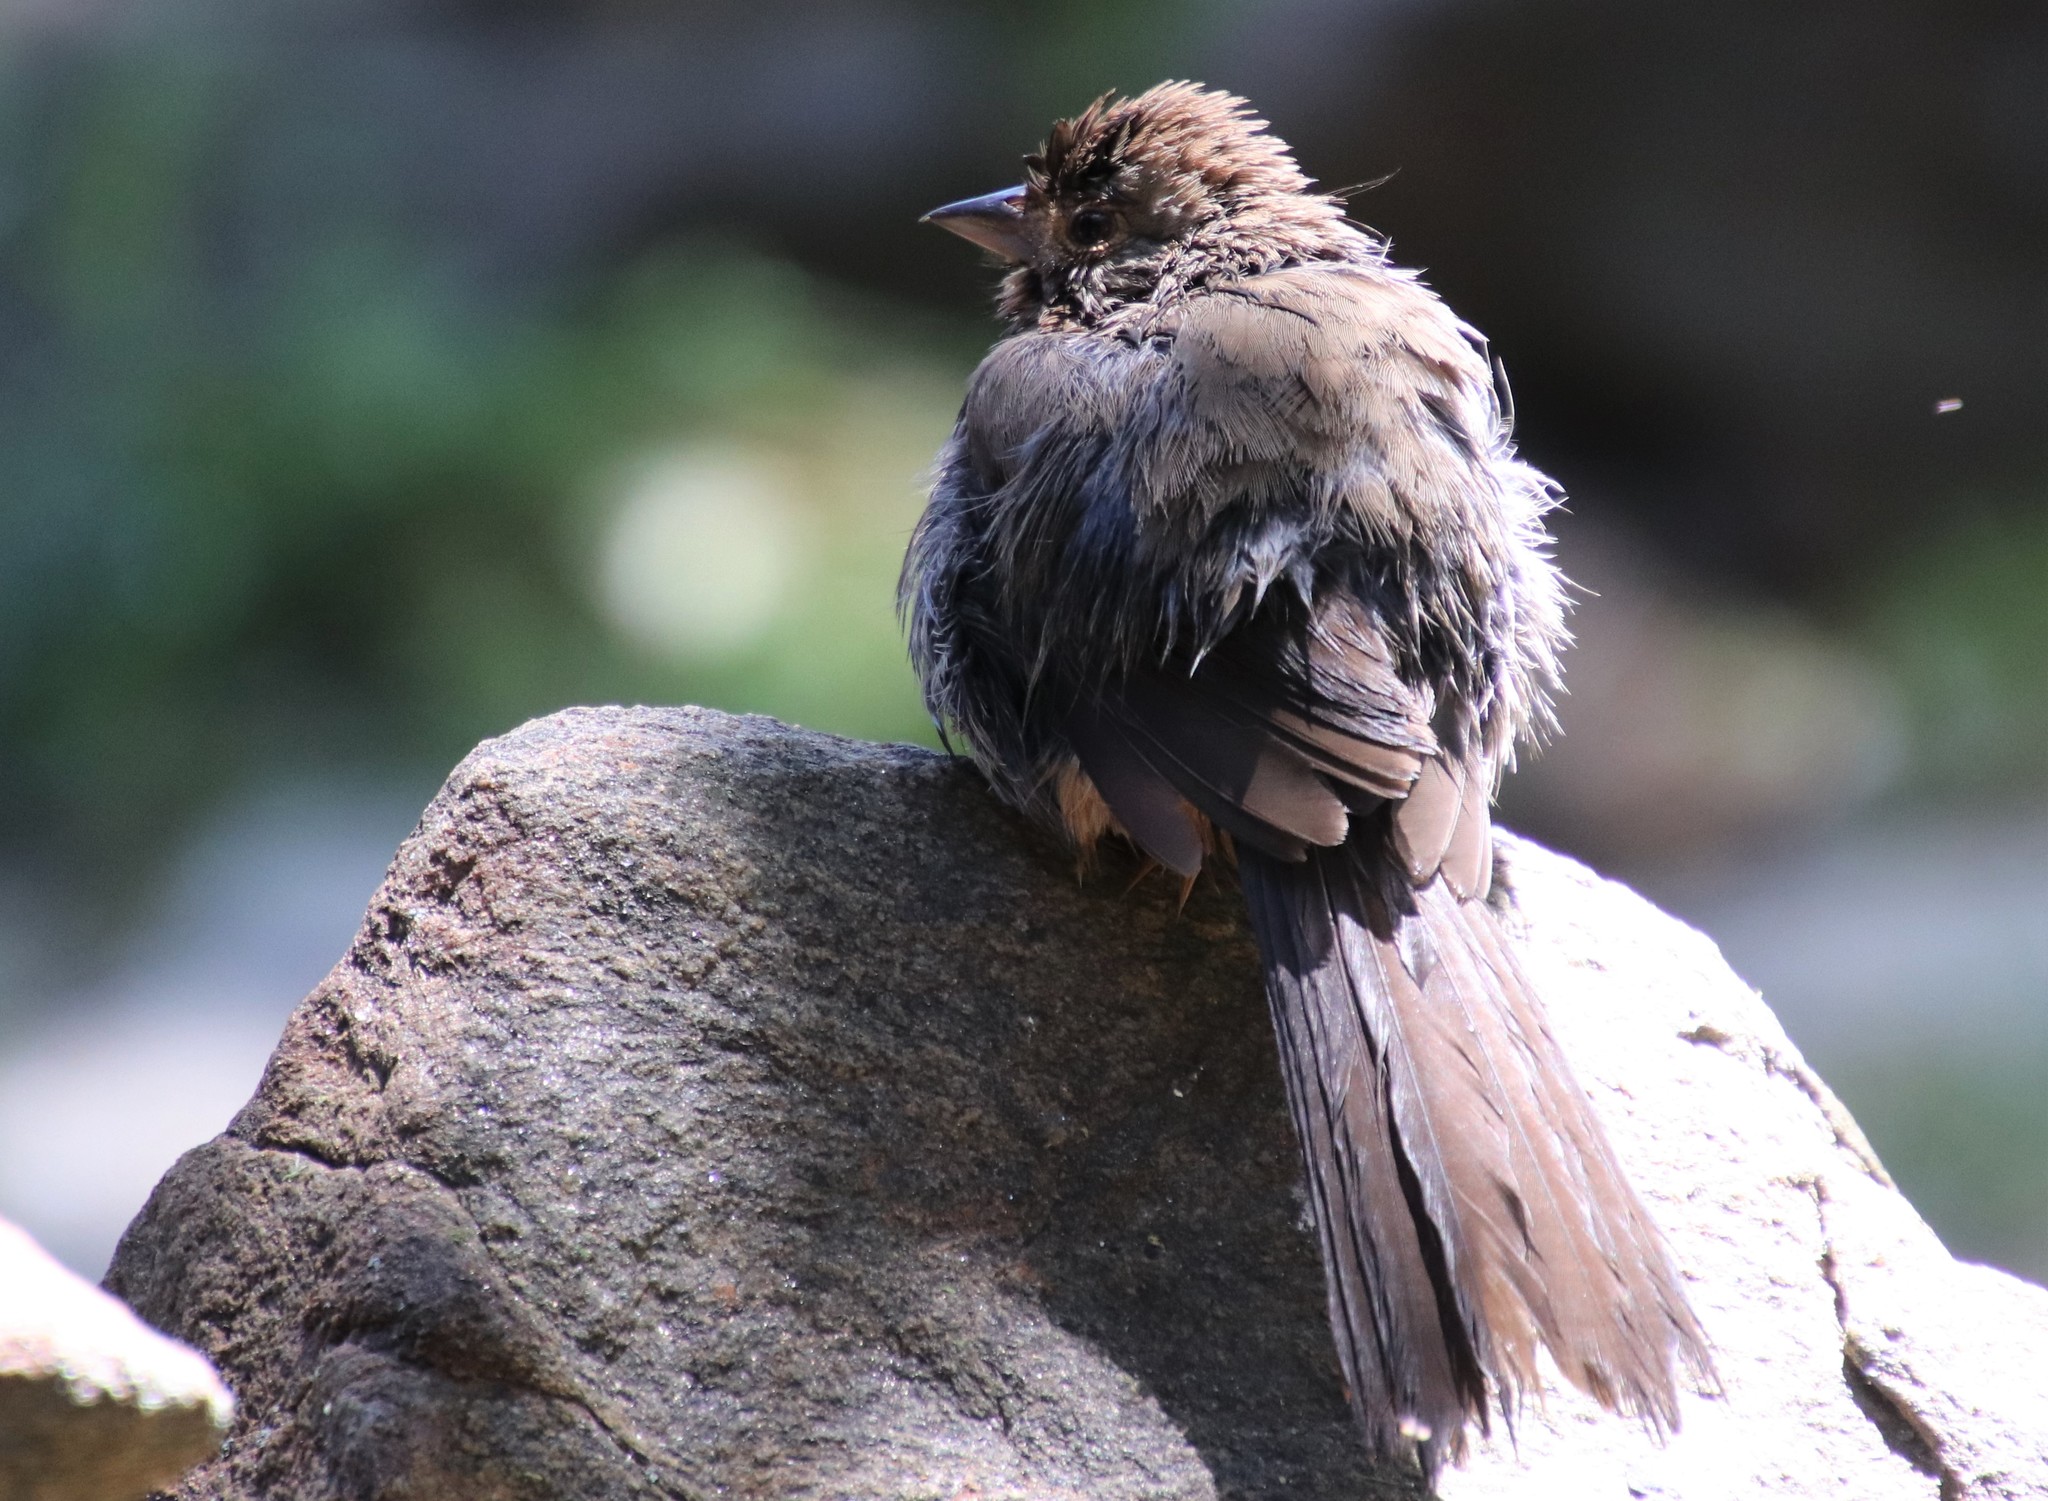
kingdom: Animalia
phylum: Chordata
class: Aves
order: Passeriformes
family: Passerellidae
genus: Melozone
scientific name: Melozone crissalis
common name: California towhee
